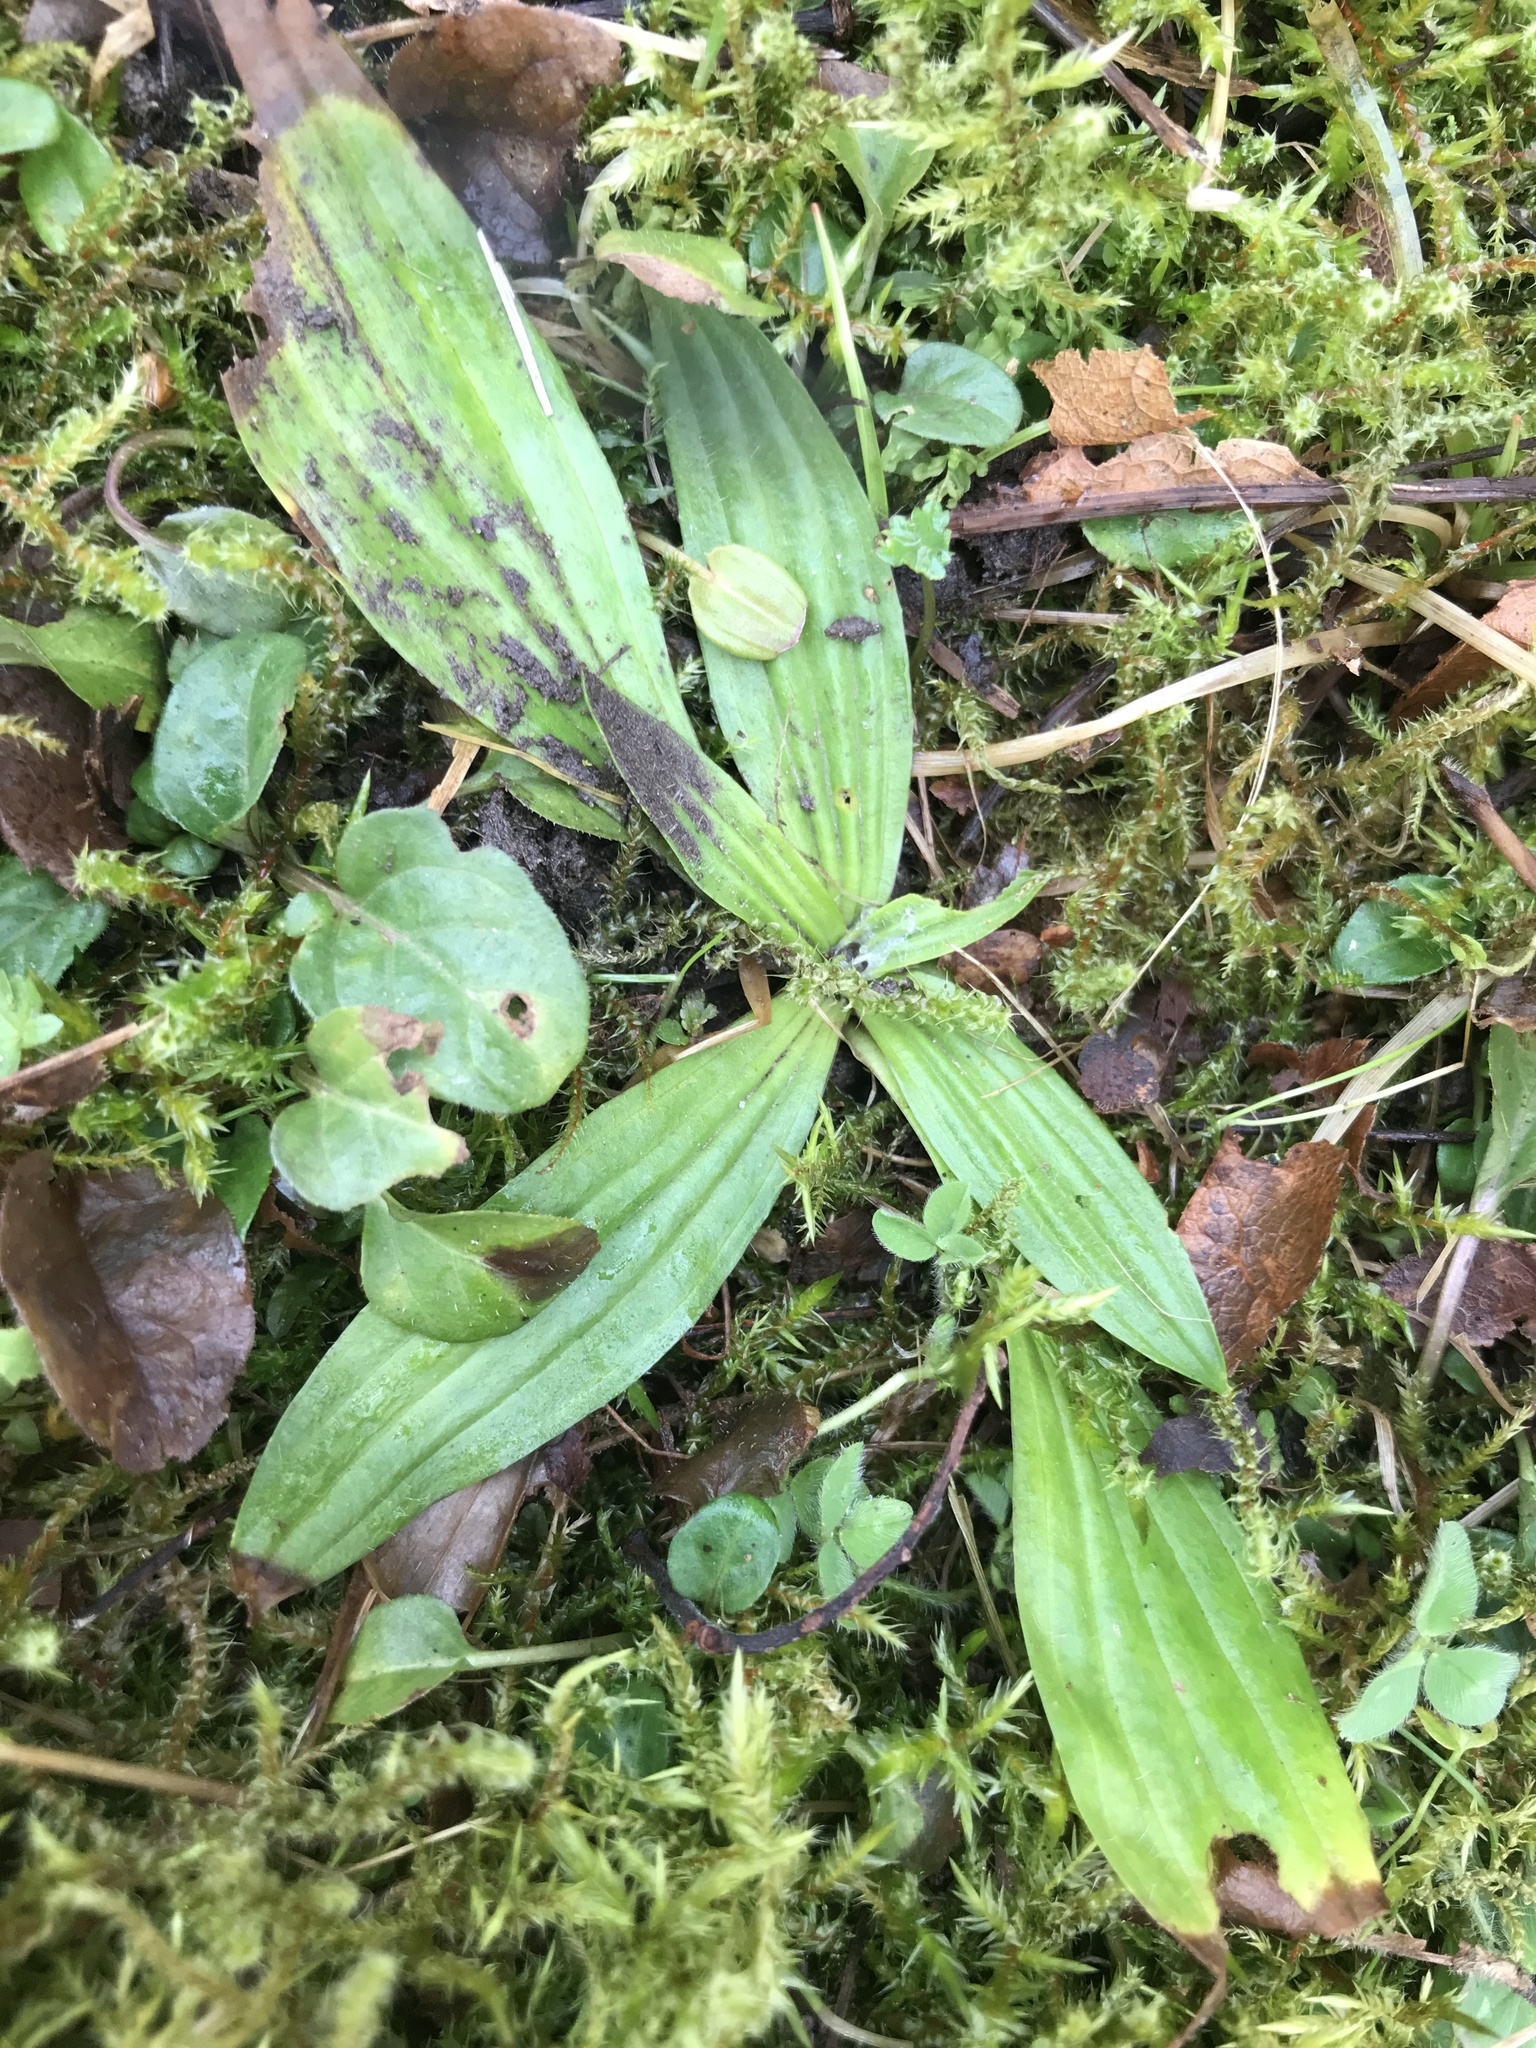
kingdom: Plantae
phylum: Tracheophyta
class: Magnoliopsida
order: Lamiales
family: Plantaginaceae
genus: Plantago
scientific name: Plantago lanceolata
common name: Ribwort plantain
